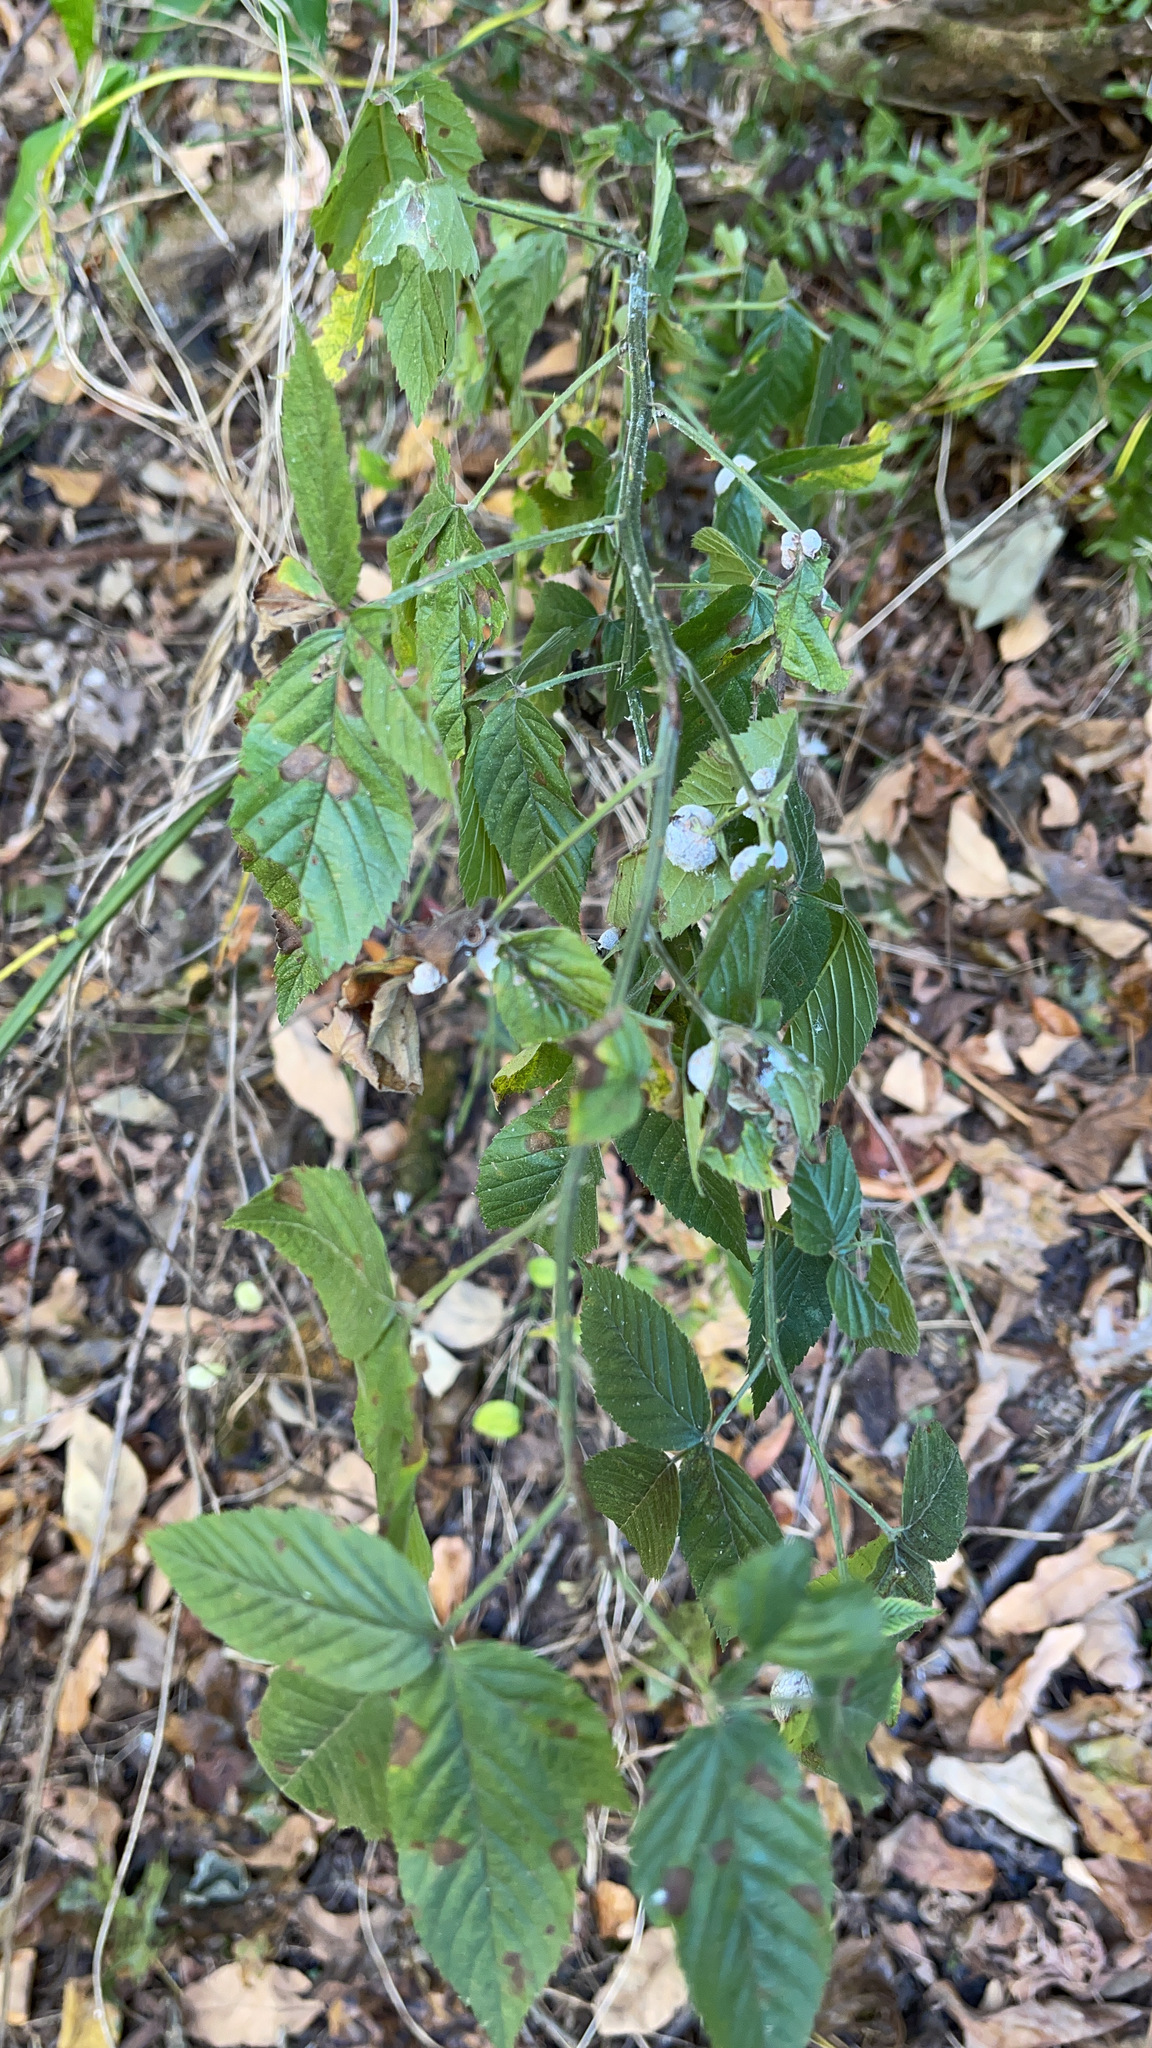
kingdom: Animalia
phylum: Arthropoda
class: Insecta
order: Diptera
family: Cecidomyiidae
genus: Neolasioptera
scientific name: Neolasioptera farinosa
